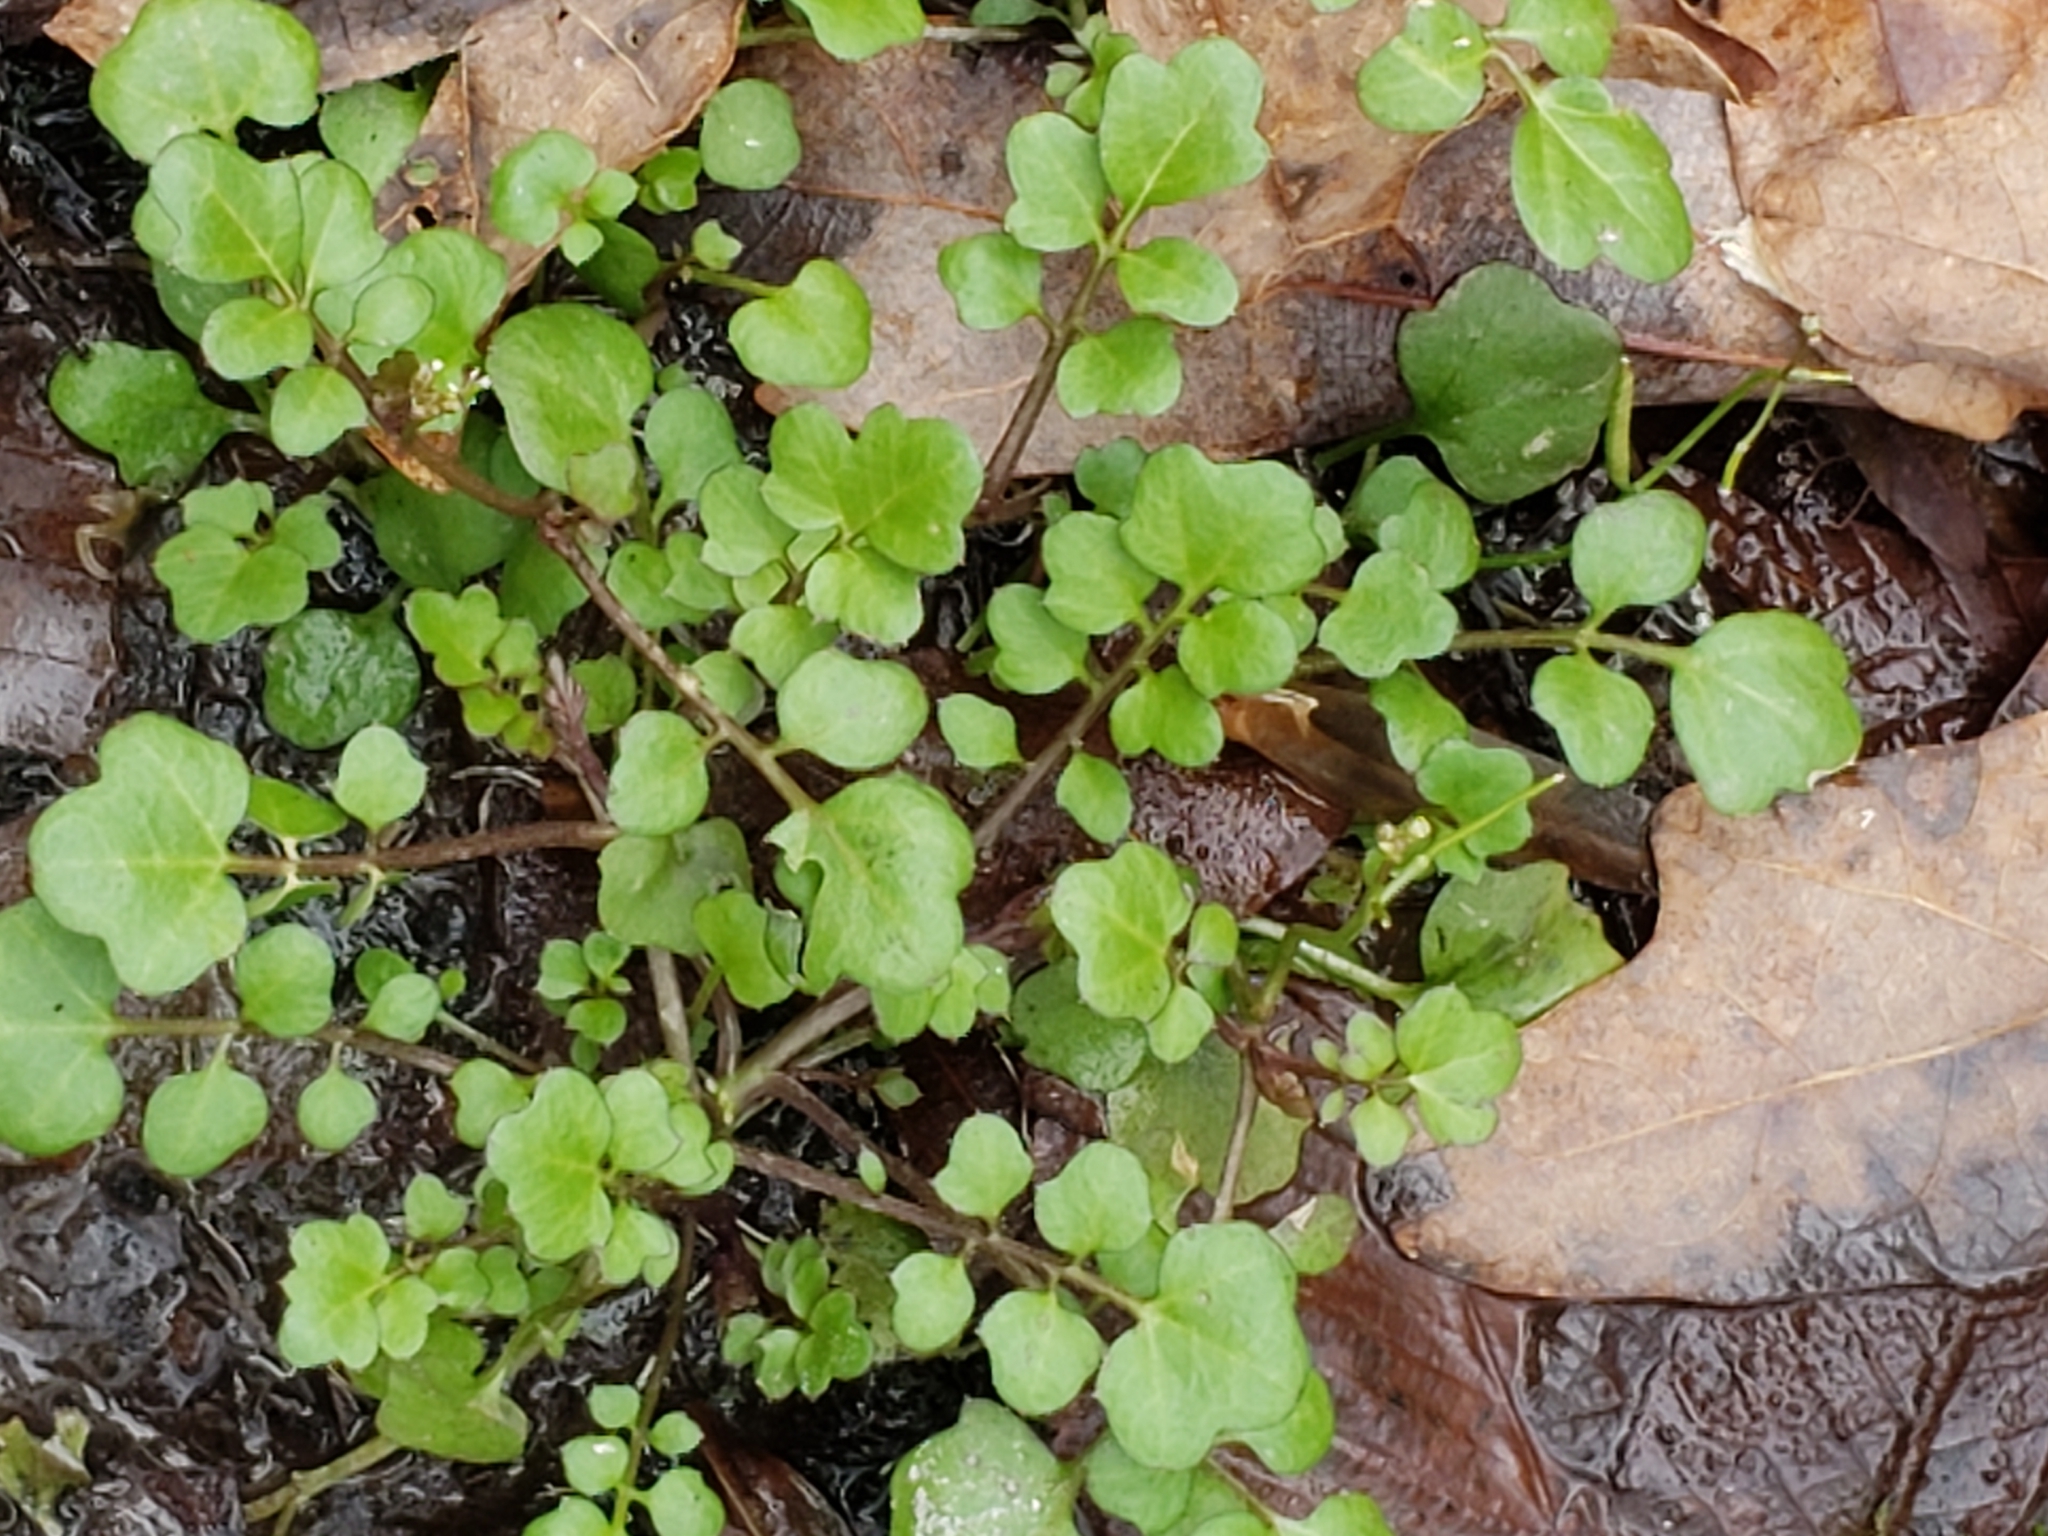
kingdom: Plantae
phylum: Tracheophyta
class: Magnoliopsida
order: Brassicales
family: Brassicaceae
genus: Cardamine
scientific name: Cardamine occulta
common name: Asian wavy bittercress
